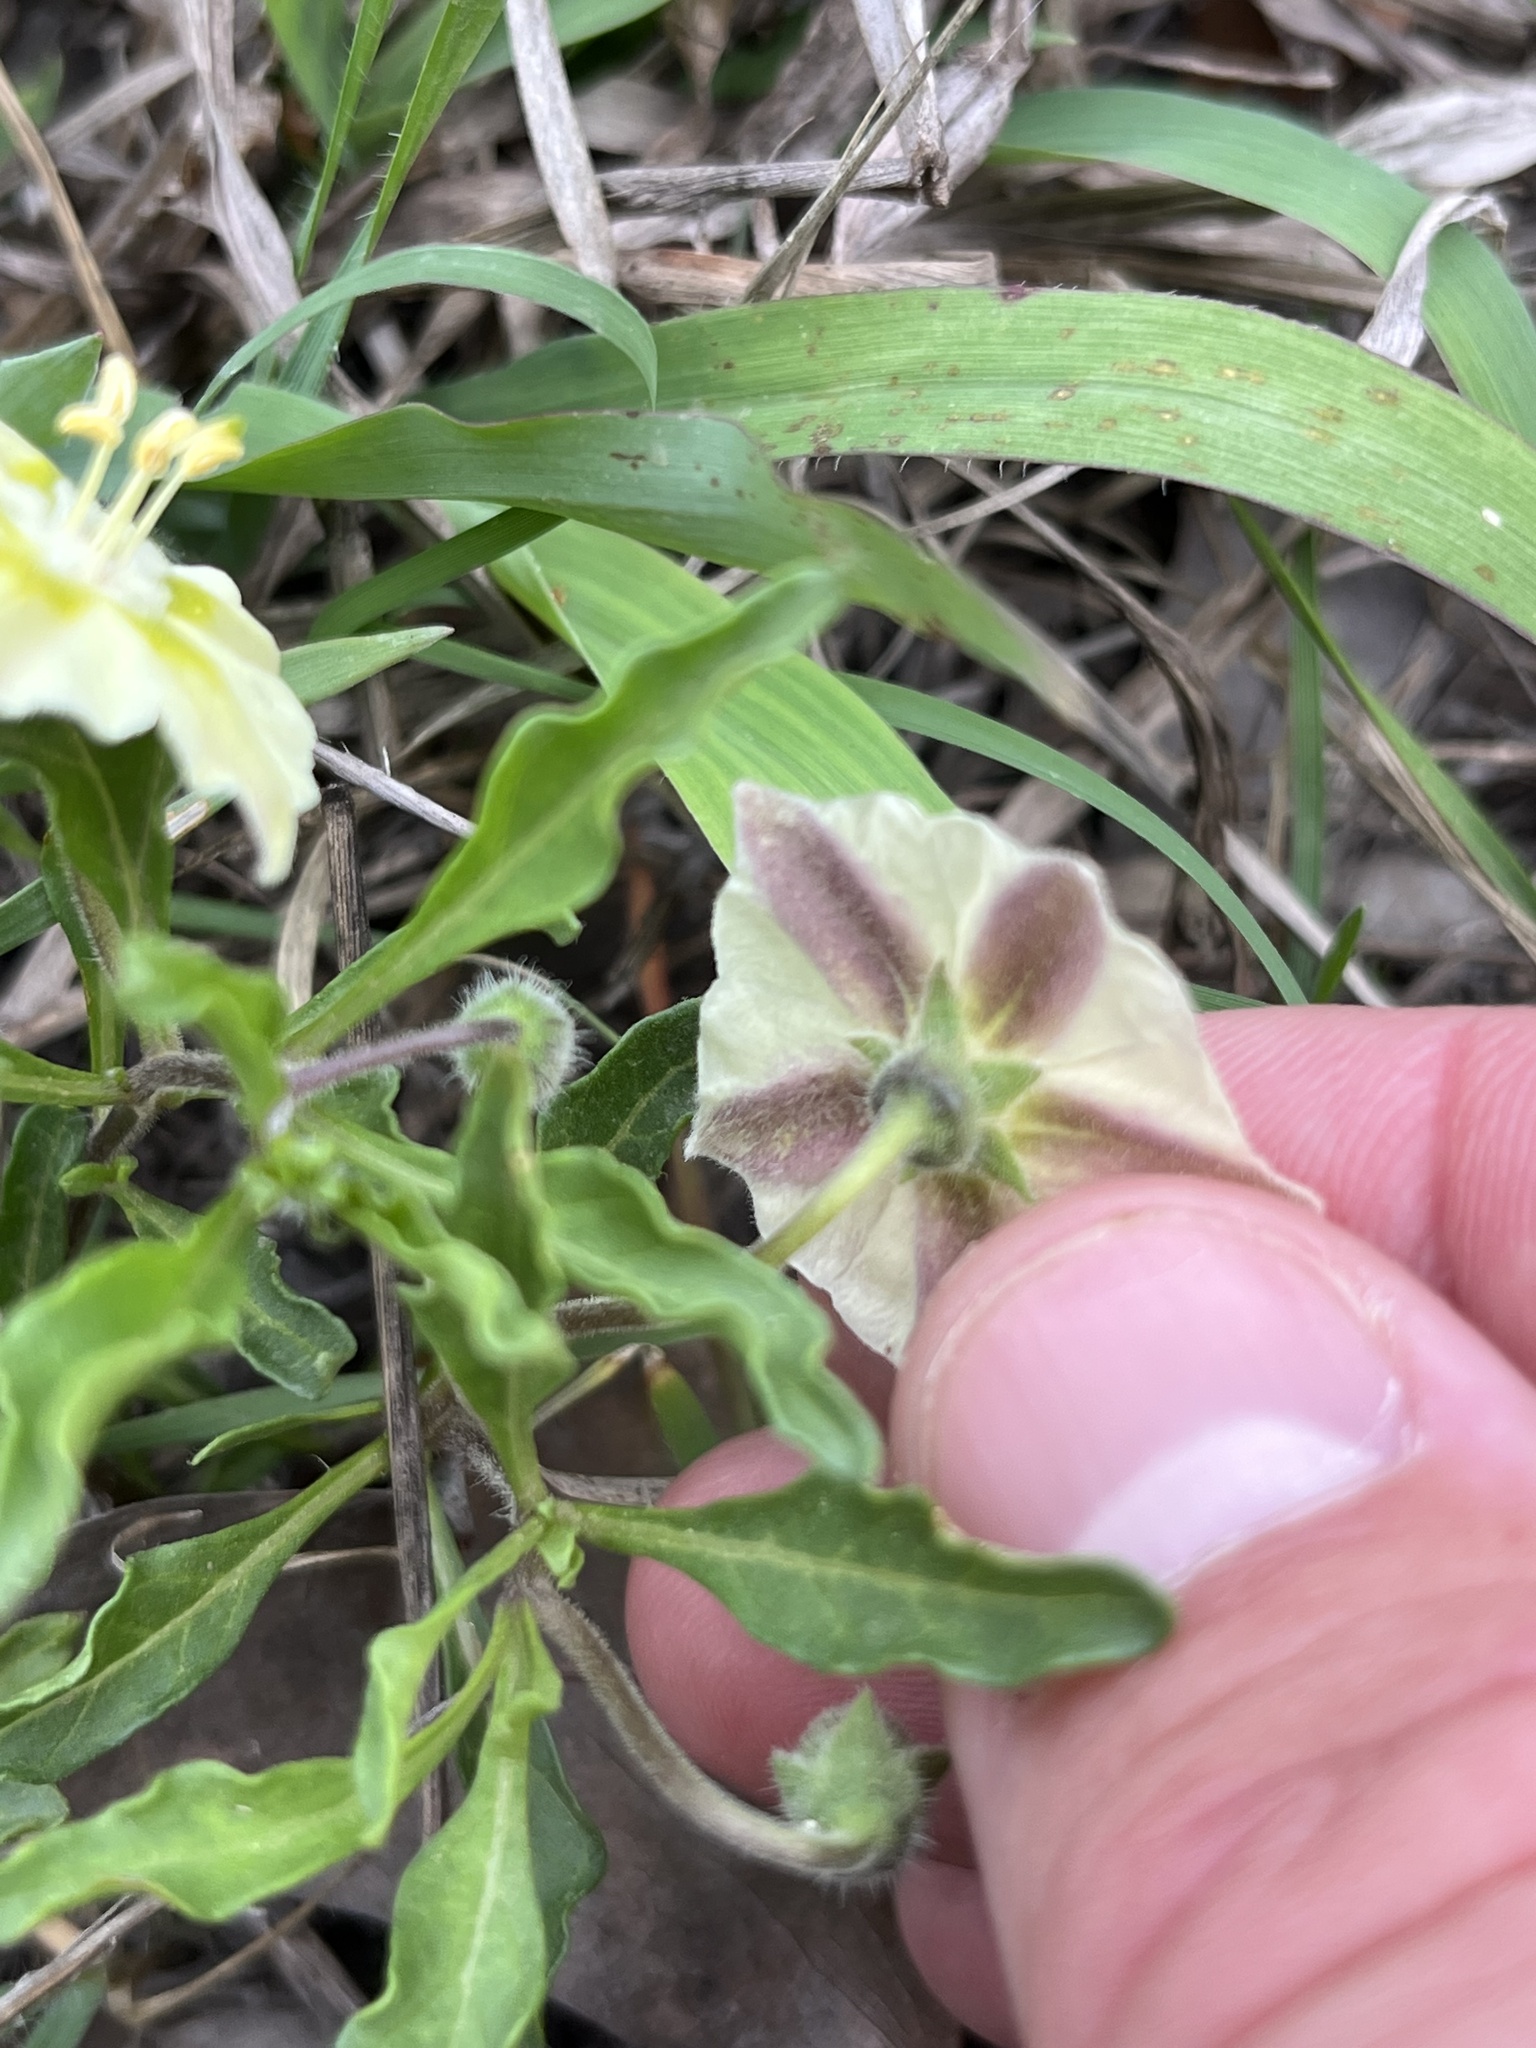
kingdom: Plantae
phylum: Tracheophyta
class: Magnoliopsida
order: Solanales
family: Solanaceae
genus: Chamaesaracha
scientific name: Chamaesaracha edwardsiana
